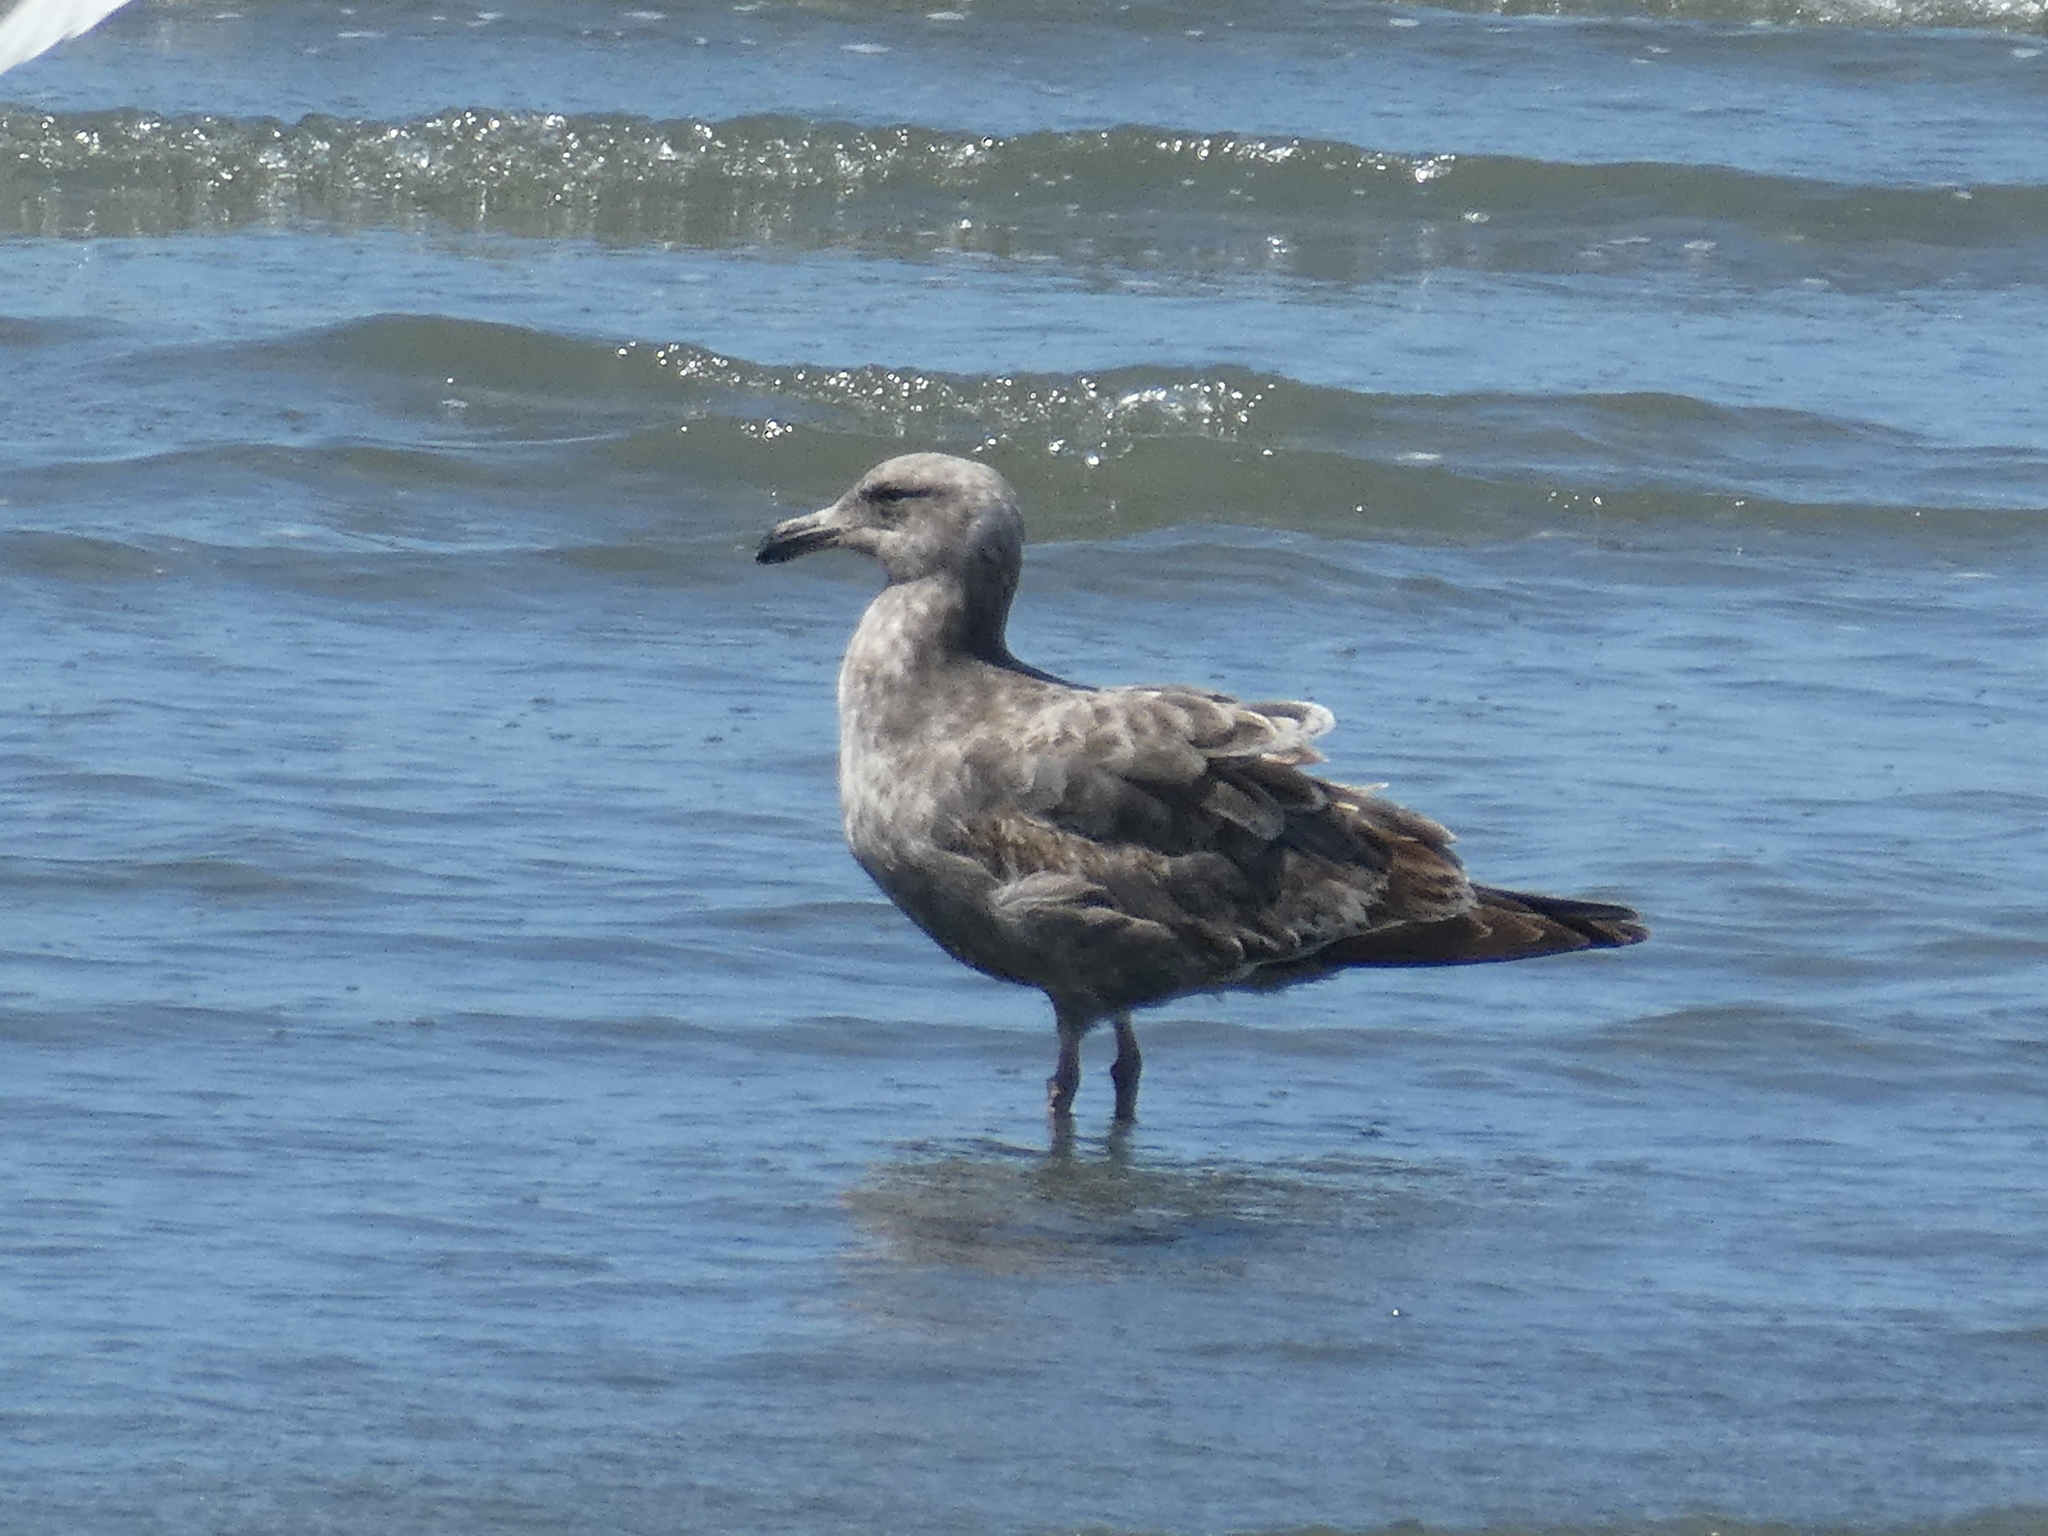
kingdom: Animalia
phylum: Chordata
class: Aves
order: Charadriiformes
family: Laridae
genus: Larus
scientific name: Larus occidentalis
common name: Western gull
